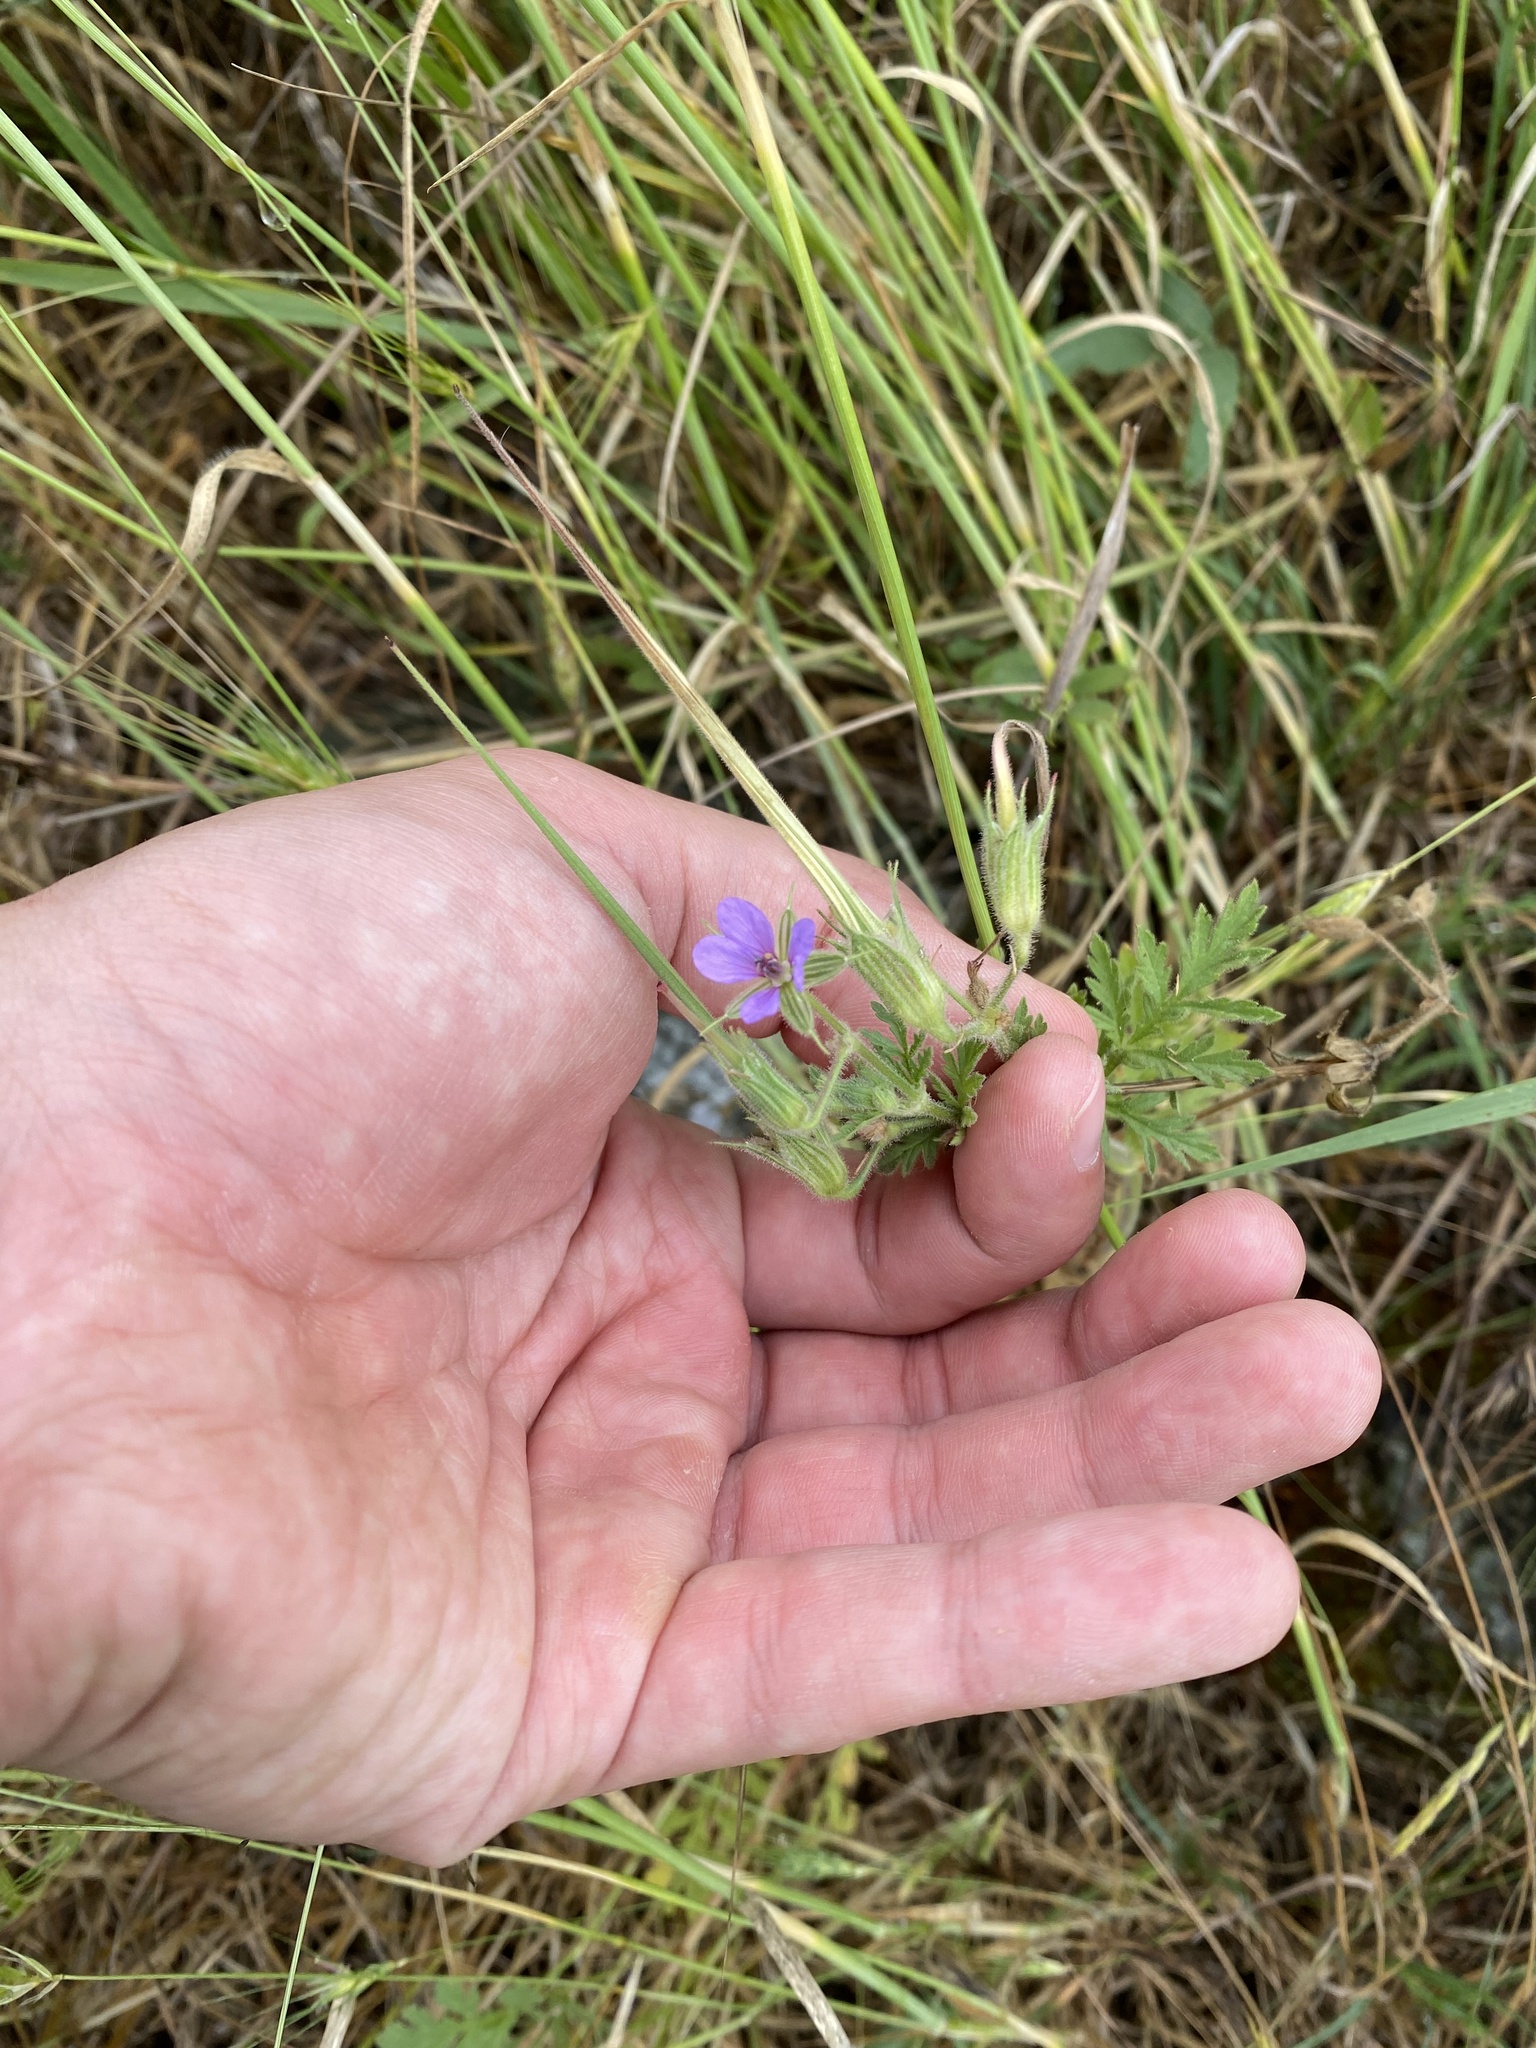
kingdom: Plantae
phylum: Tracheophyta
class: Magnoliopsida
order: Geraniales
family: Geraniaceae
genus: Erodium
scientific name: Erodium ciconium
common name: Common stork's bill
